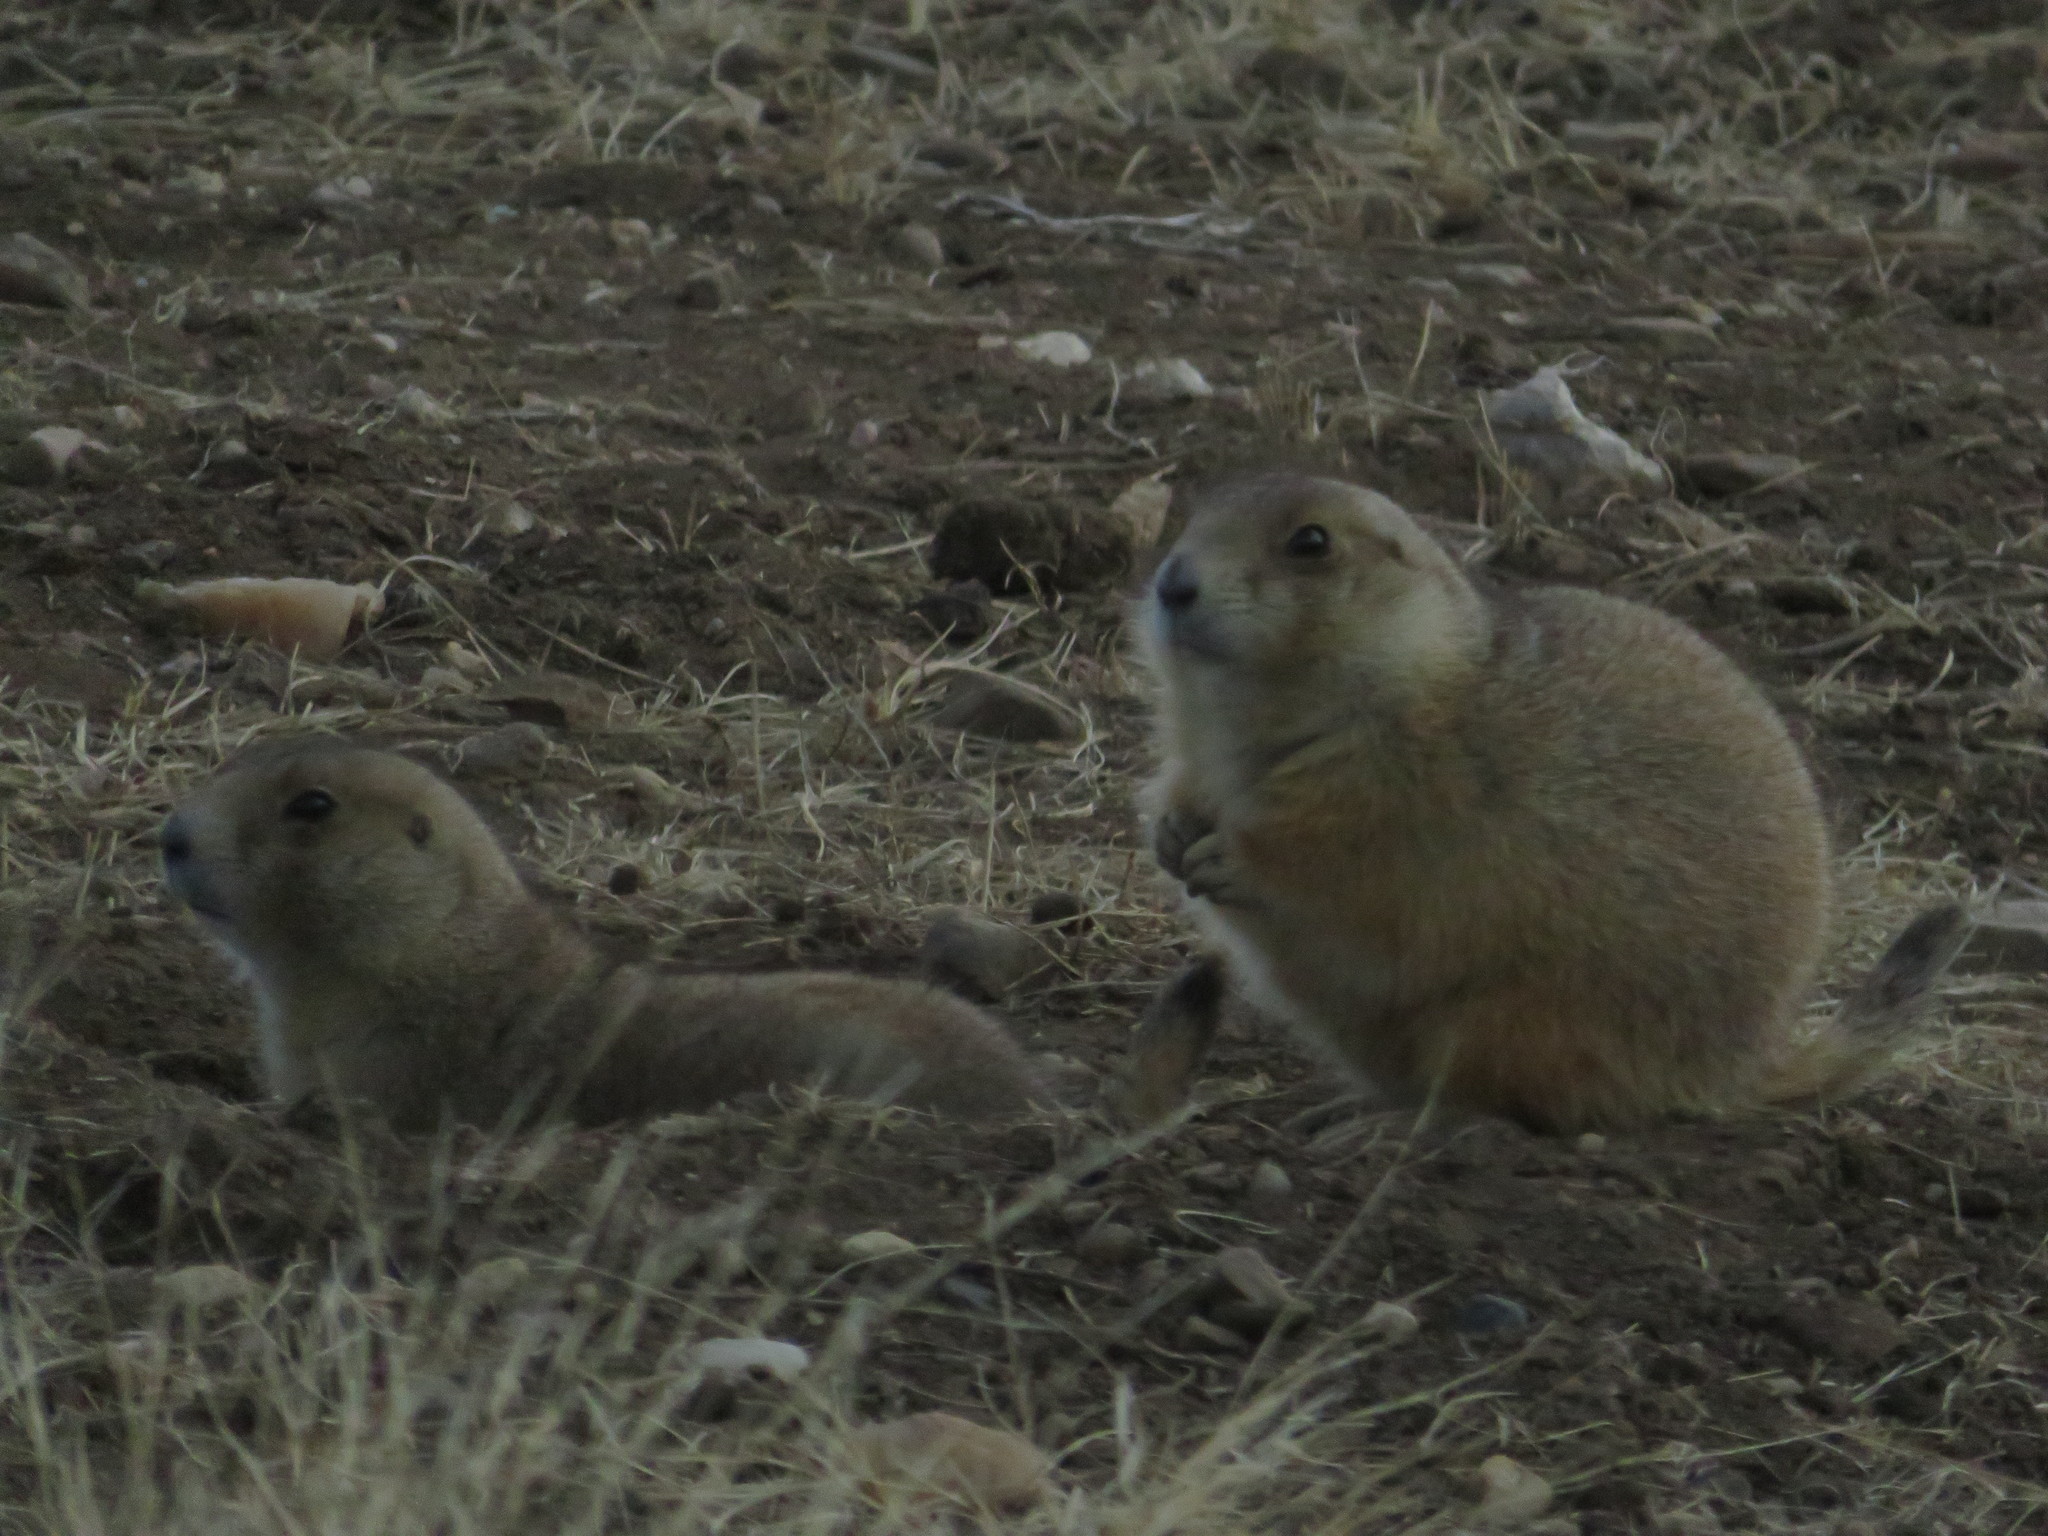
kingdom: Animalia
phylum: Chordata
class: Mammalia
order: Rodentia
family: Sciuridae
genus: Cynomys
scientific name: Cynomys ludovicianus
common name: Black-tailed prairie dog
